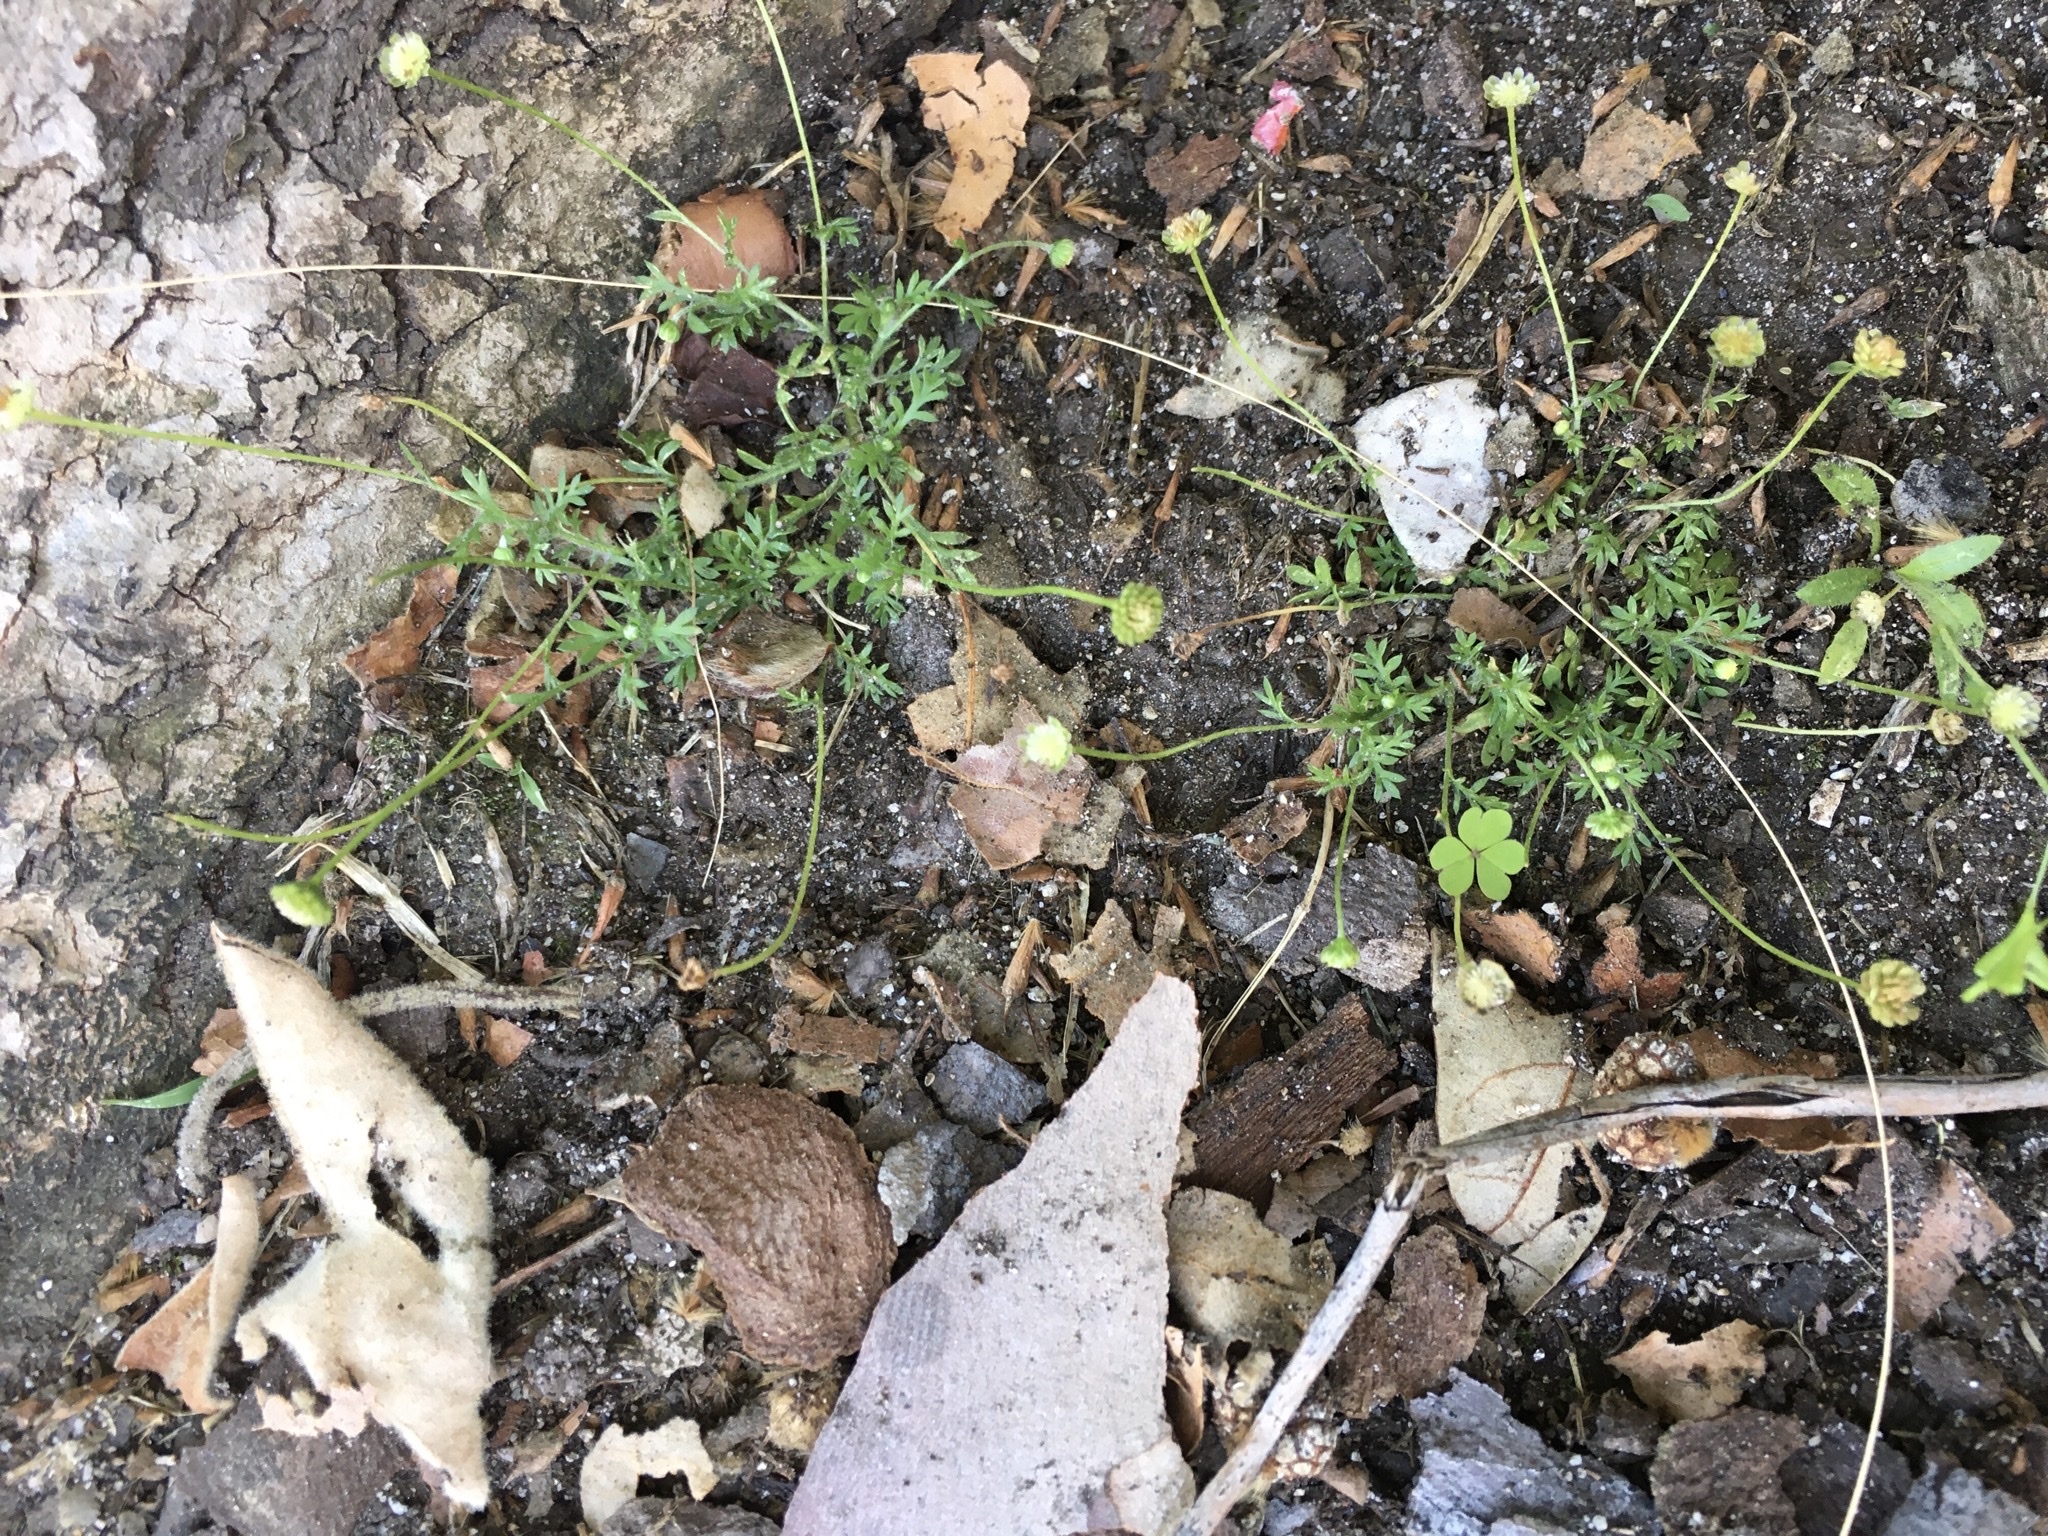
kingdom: Plantae
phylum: Tracheophyta
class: Magnoliopsida
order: Asterales
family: Asteraceae
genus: Cotula
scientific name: Cotula australis
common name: Australian waterbuttons
